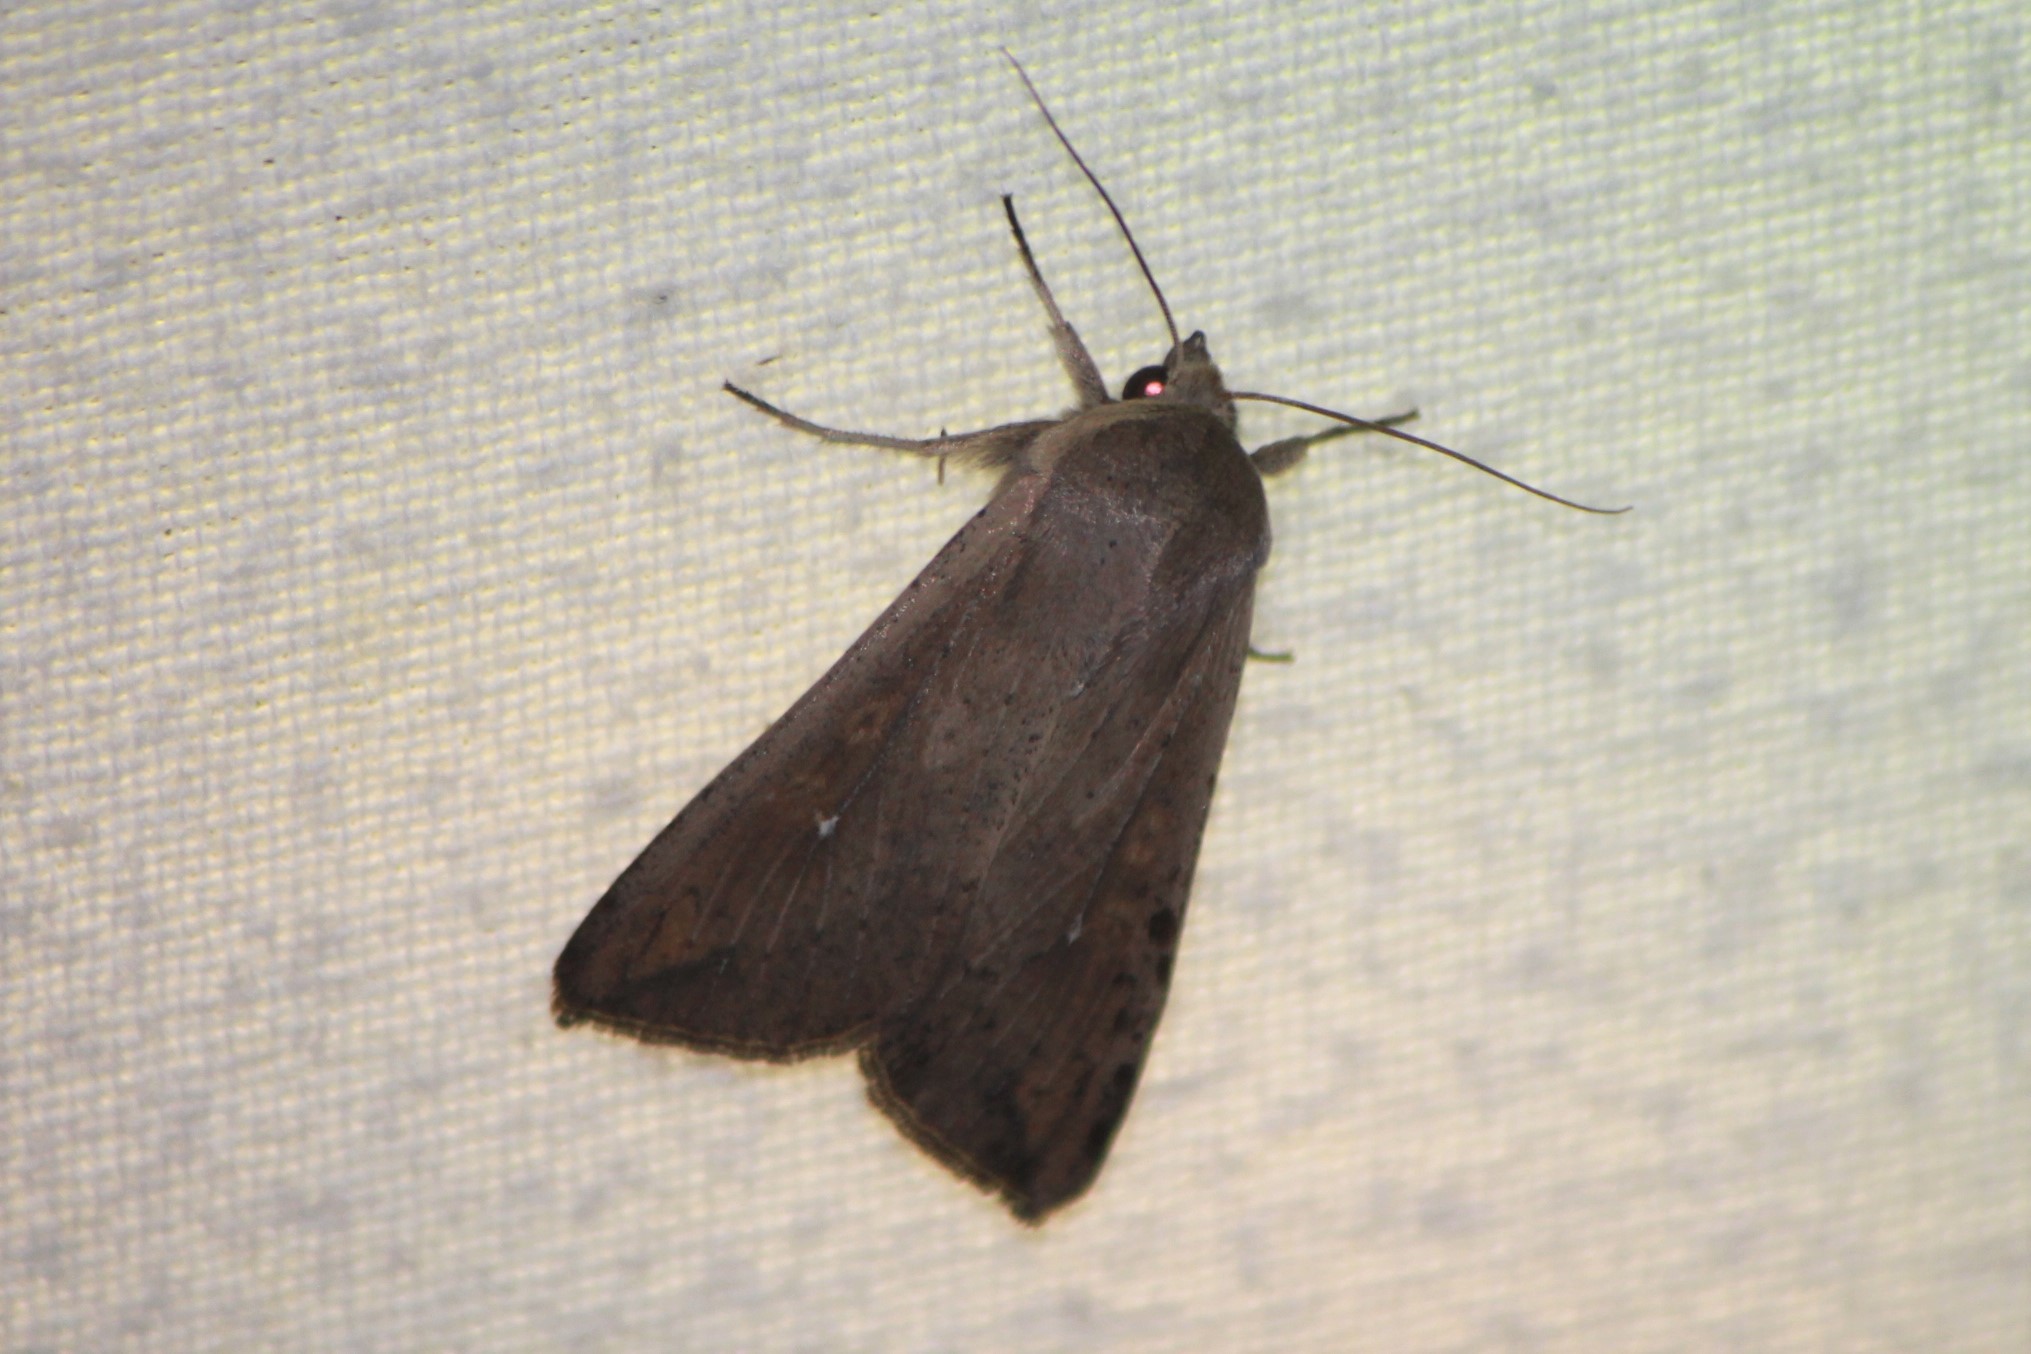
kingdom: Animalia
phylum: Arthropoda
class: Insecta
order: Lepidoptera
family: Noctuidae
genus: Mythimna
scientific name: Mythimna unipuncta
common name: White-speck
